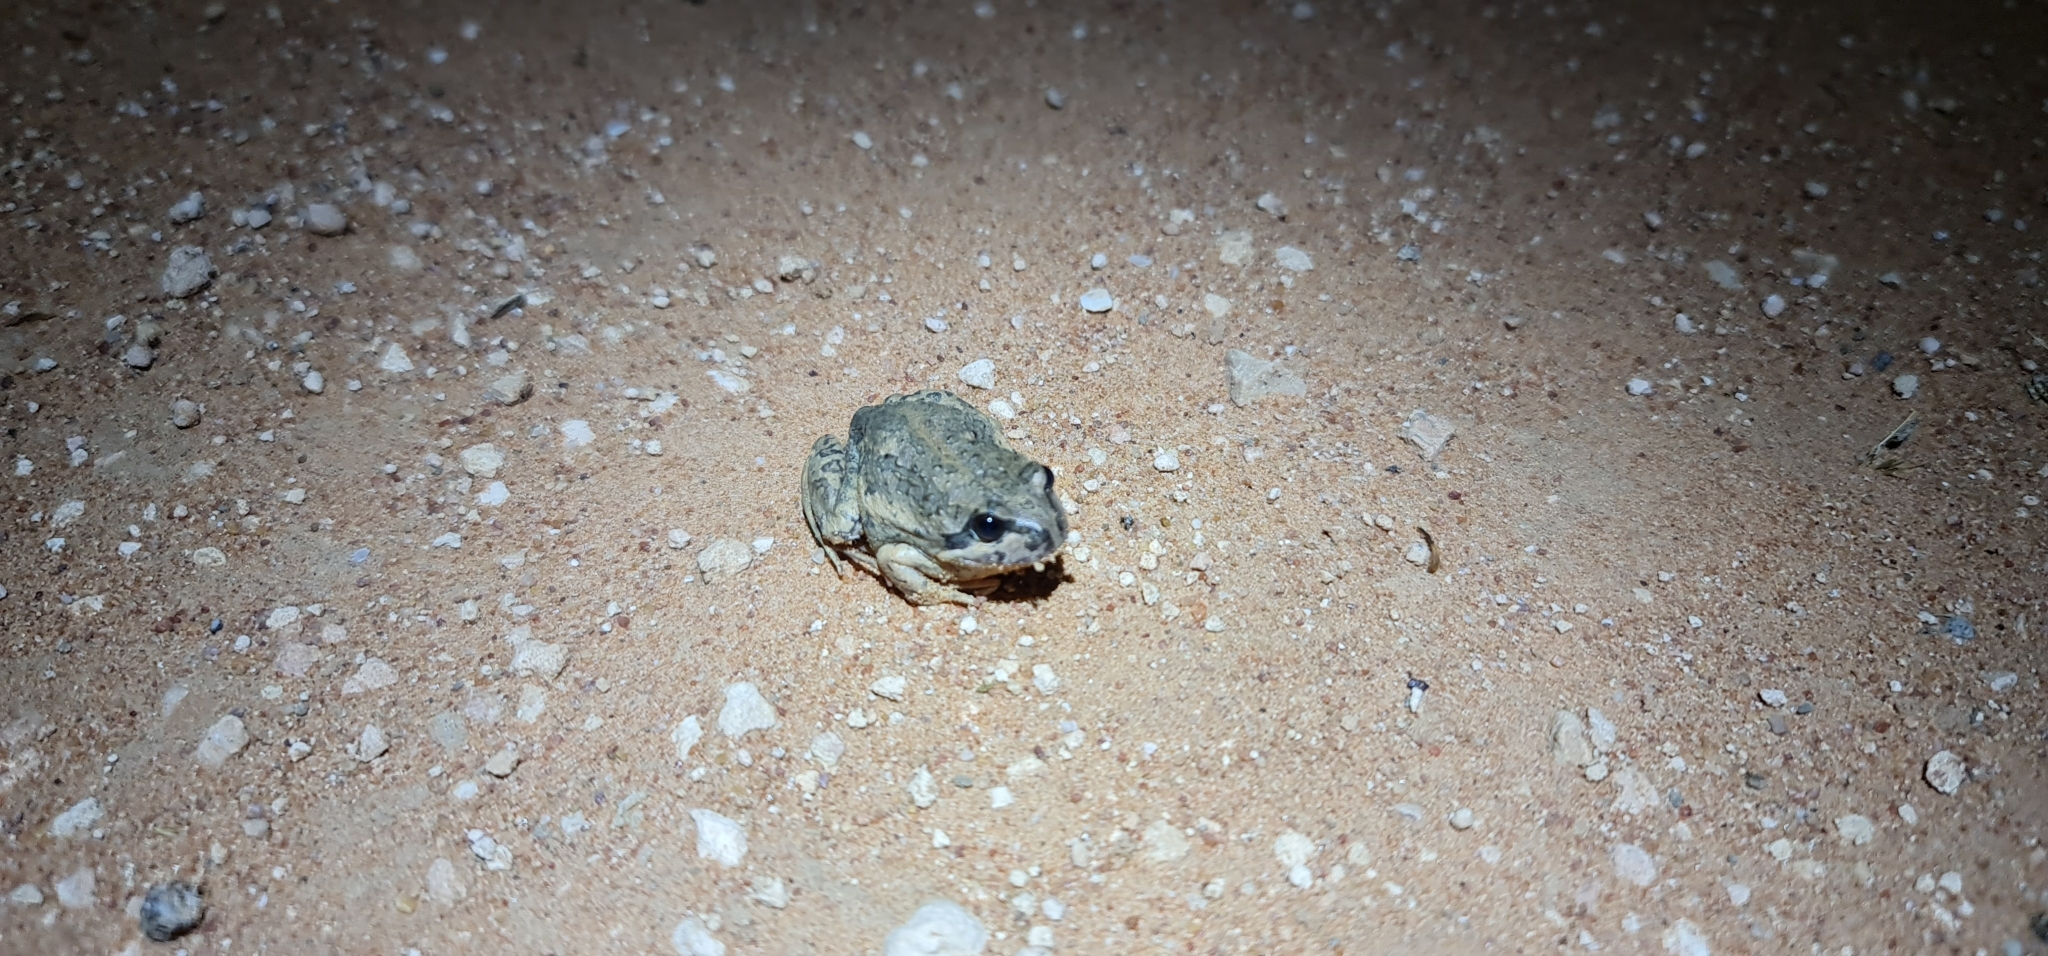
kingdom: Animalia
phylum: Chordata
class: Amphibia
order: Anura
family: Limnodynastidae
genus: Limnodynastes
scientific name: Limnodynastes dumerilii
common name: Banjo frog
